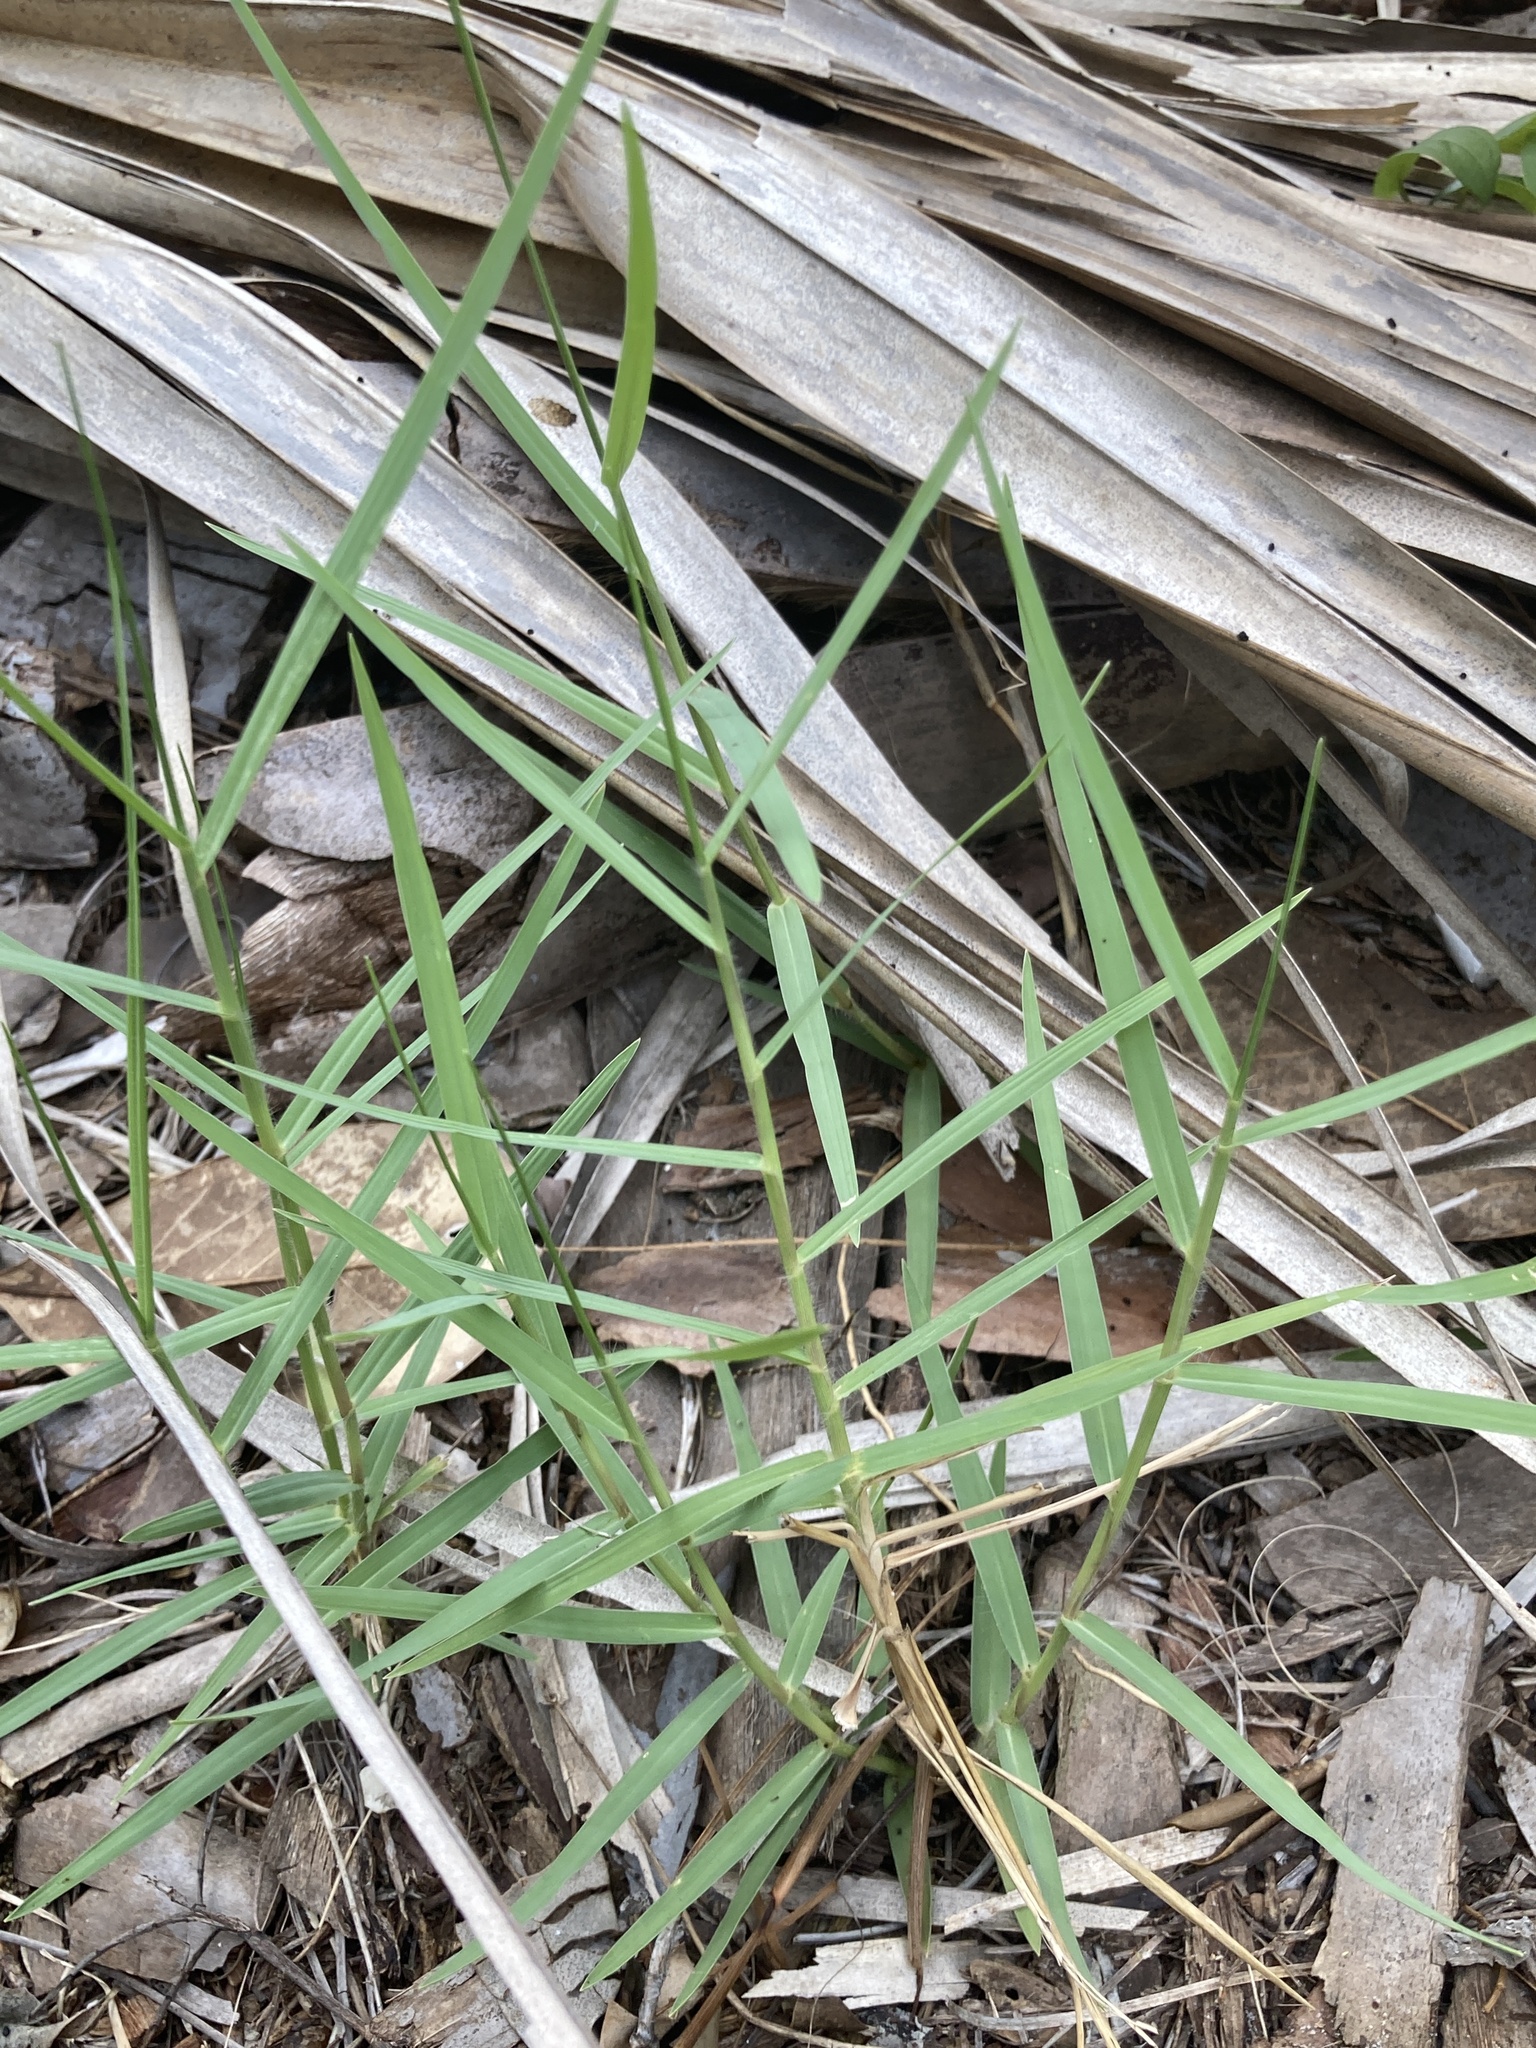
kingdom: Plantae
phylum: Tracheophyta
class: Liliopsida
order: Poales
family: Poaceae
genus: Panicum
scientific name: Panicum repens
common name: Torpedo grass
